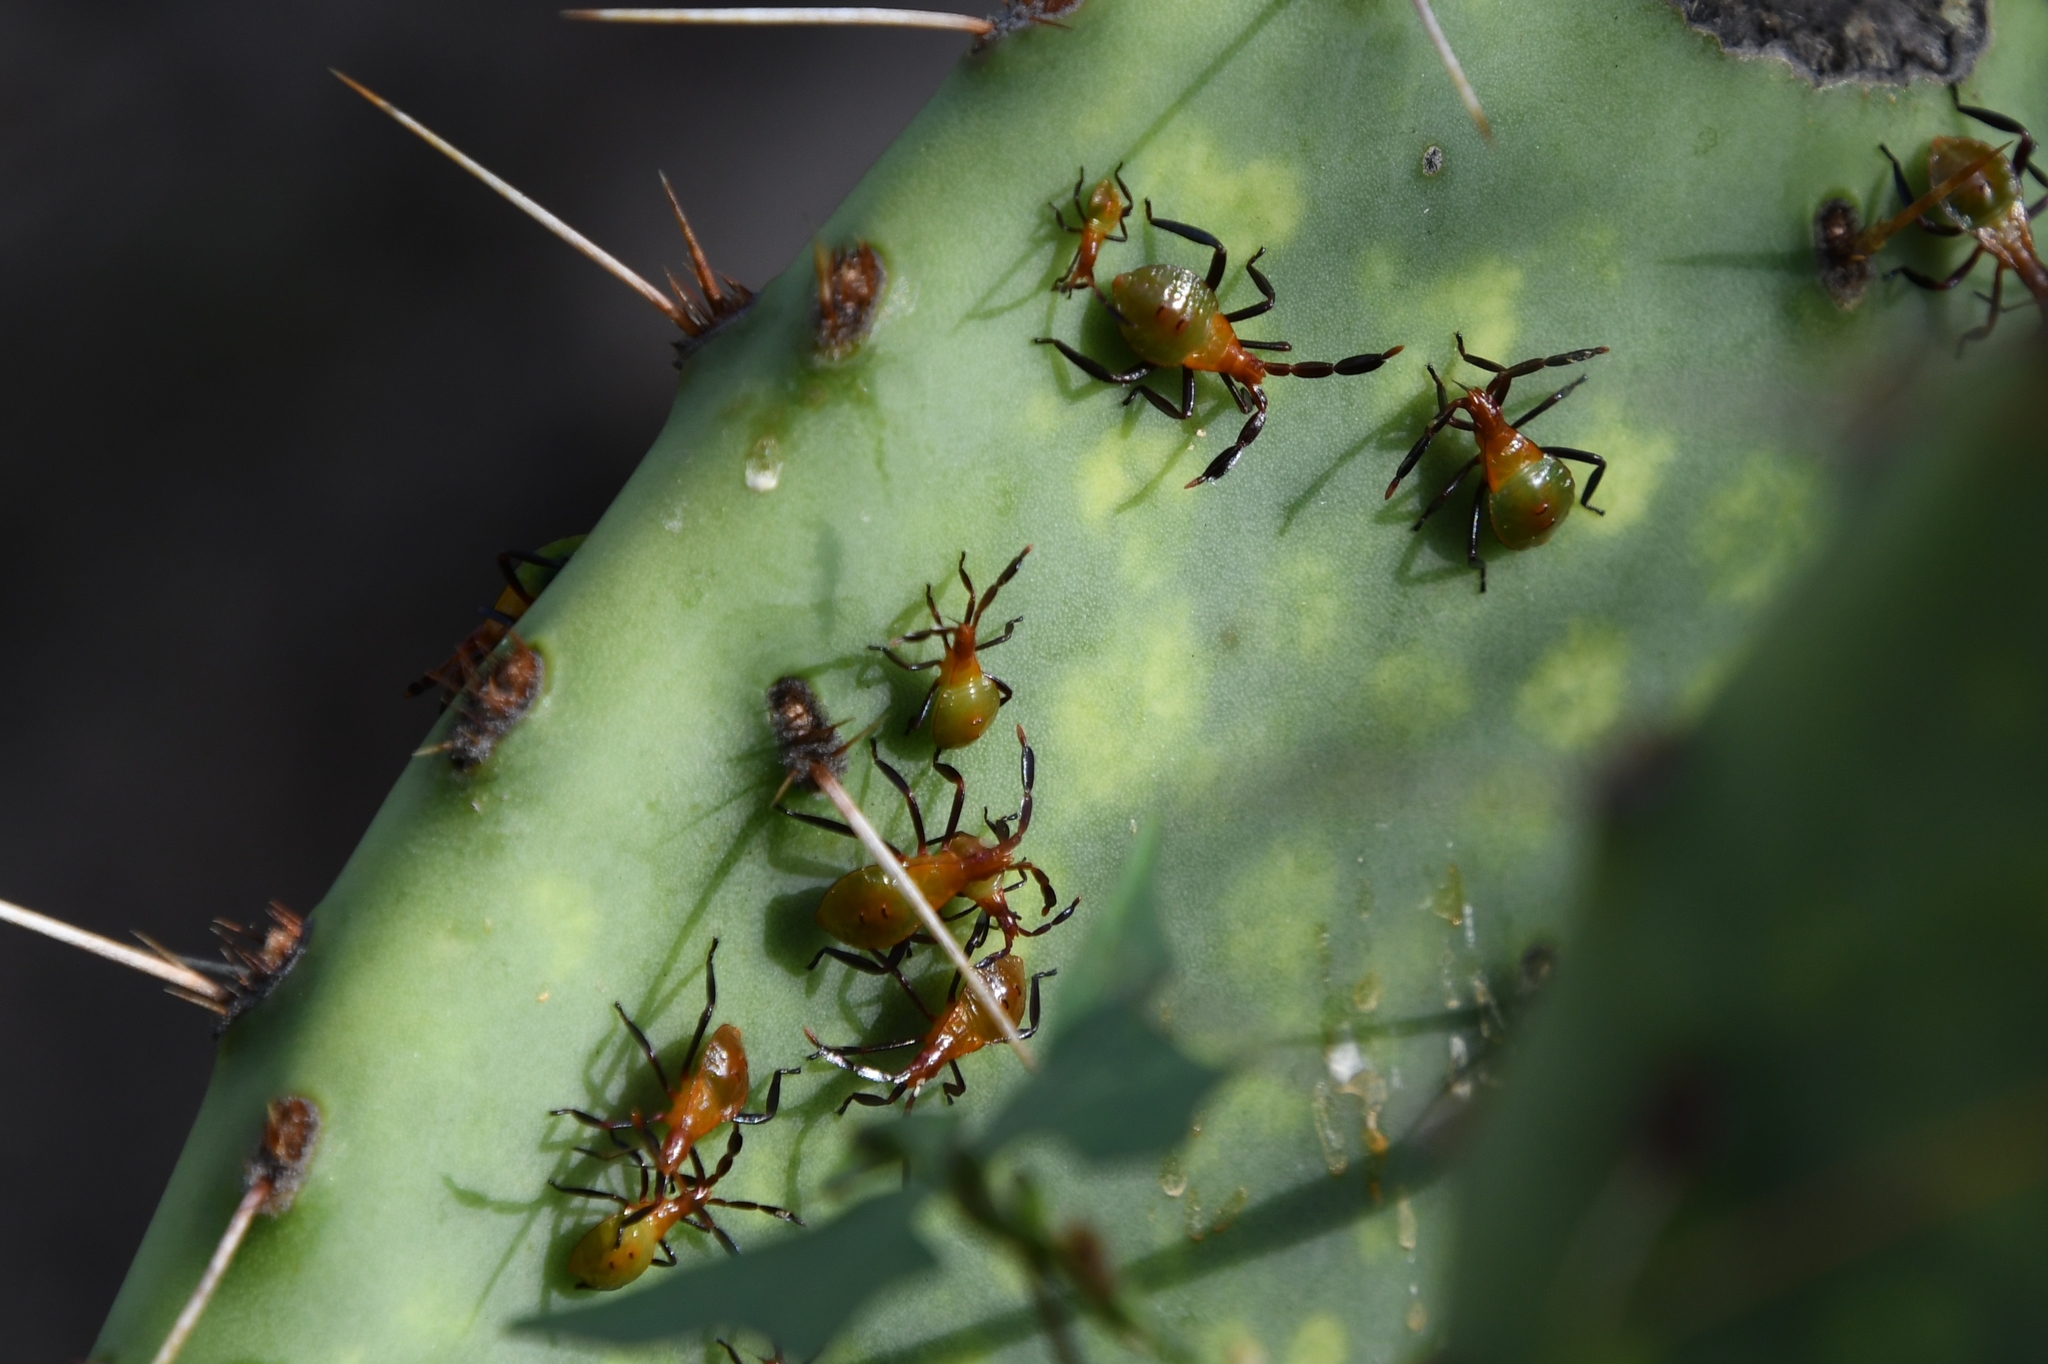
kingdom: Animalia
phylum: Arthropoda
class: Insecta
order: Hemiptera
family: Coreidae
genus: Chelinidea
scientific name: Chelinidea vittiger
